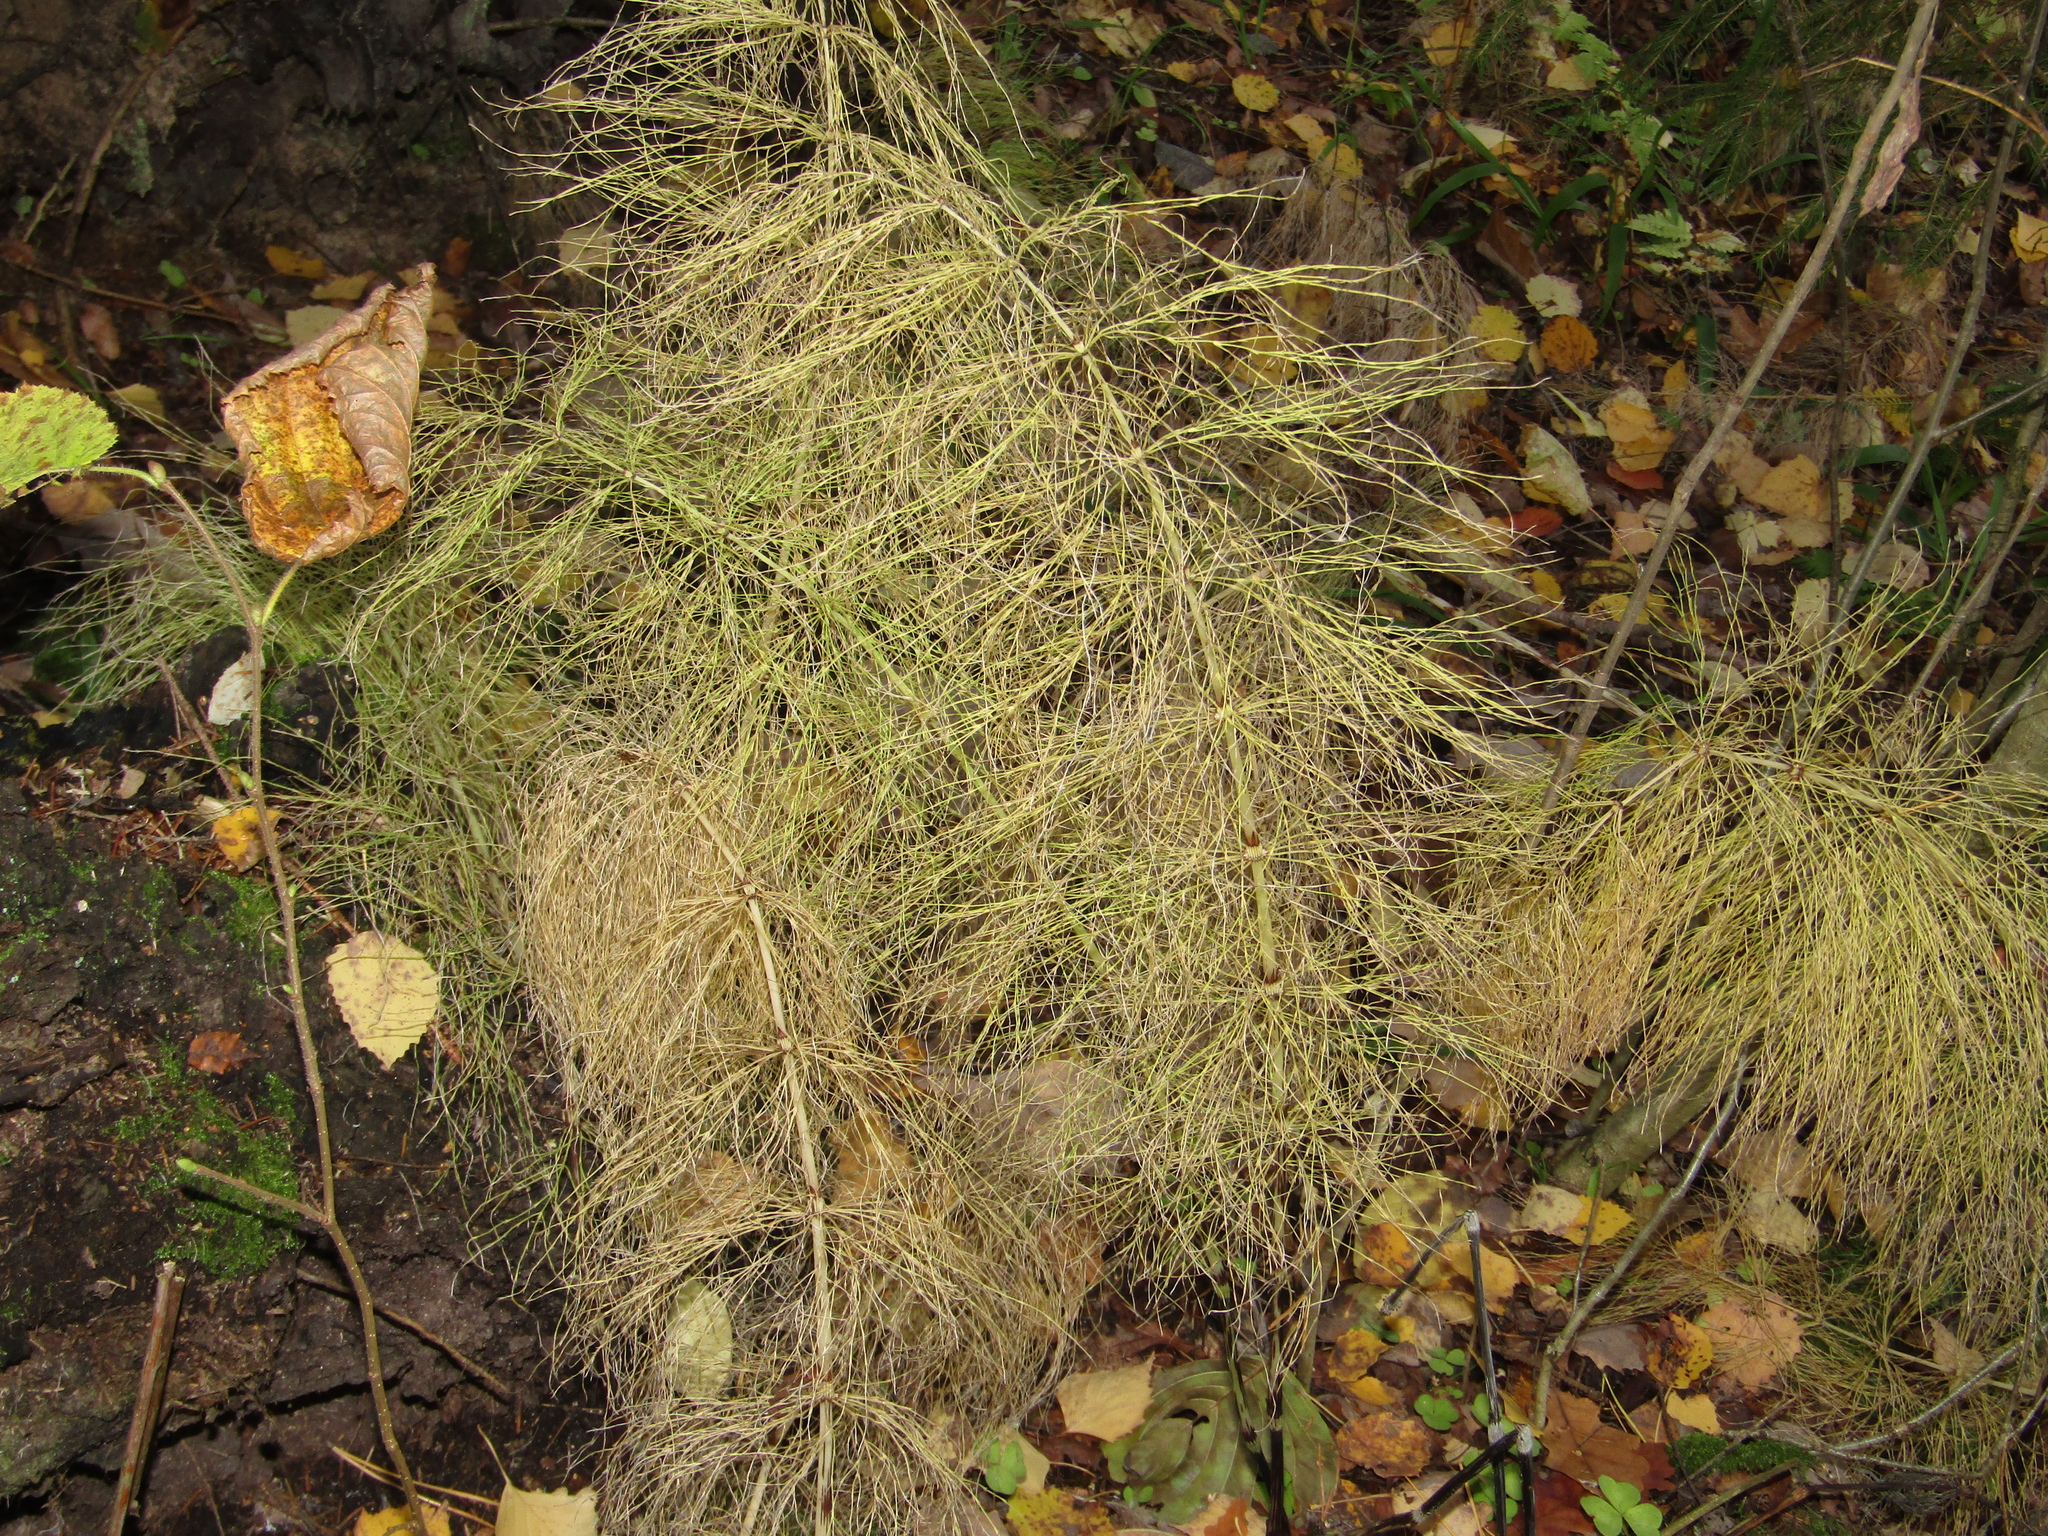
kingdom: Plantae
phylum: Tracheophyta
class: Polypodiopsida
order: Equisetales
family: Equisetaceae
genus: Equisetum
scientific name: Equisetum sylvaticum
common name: Wood horsetail
